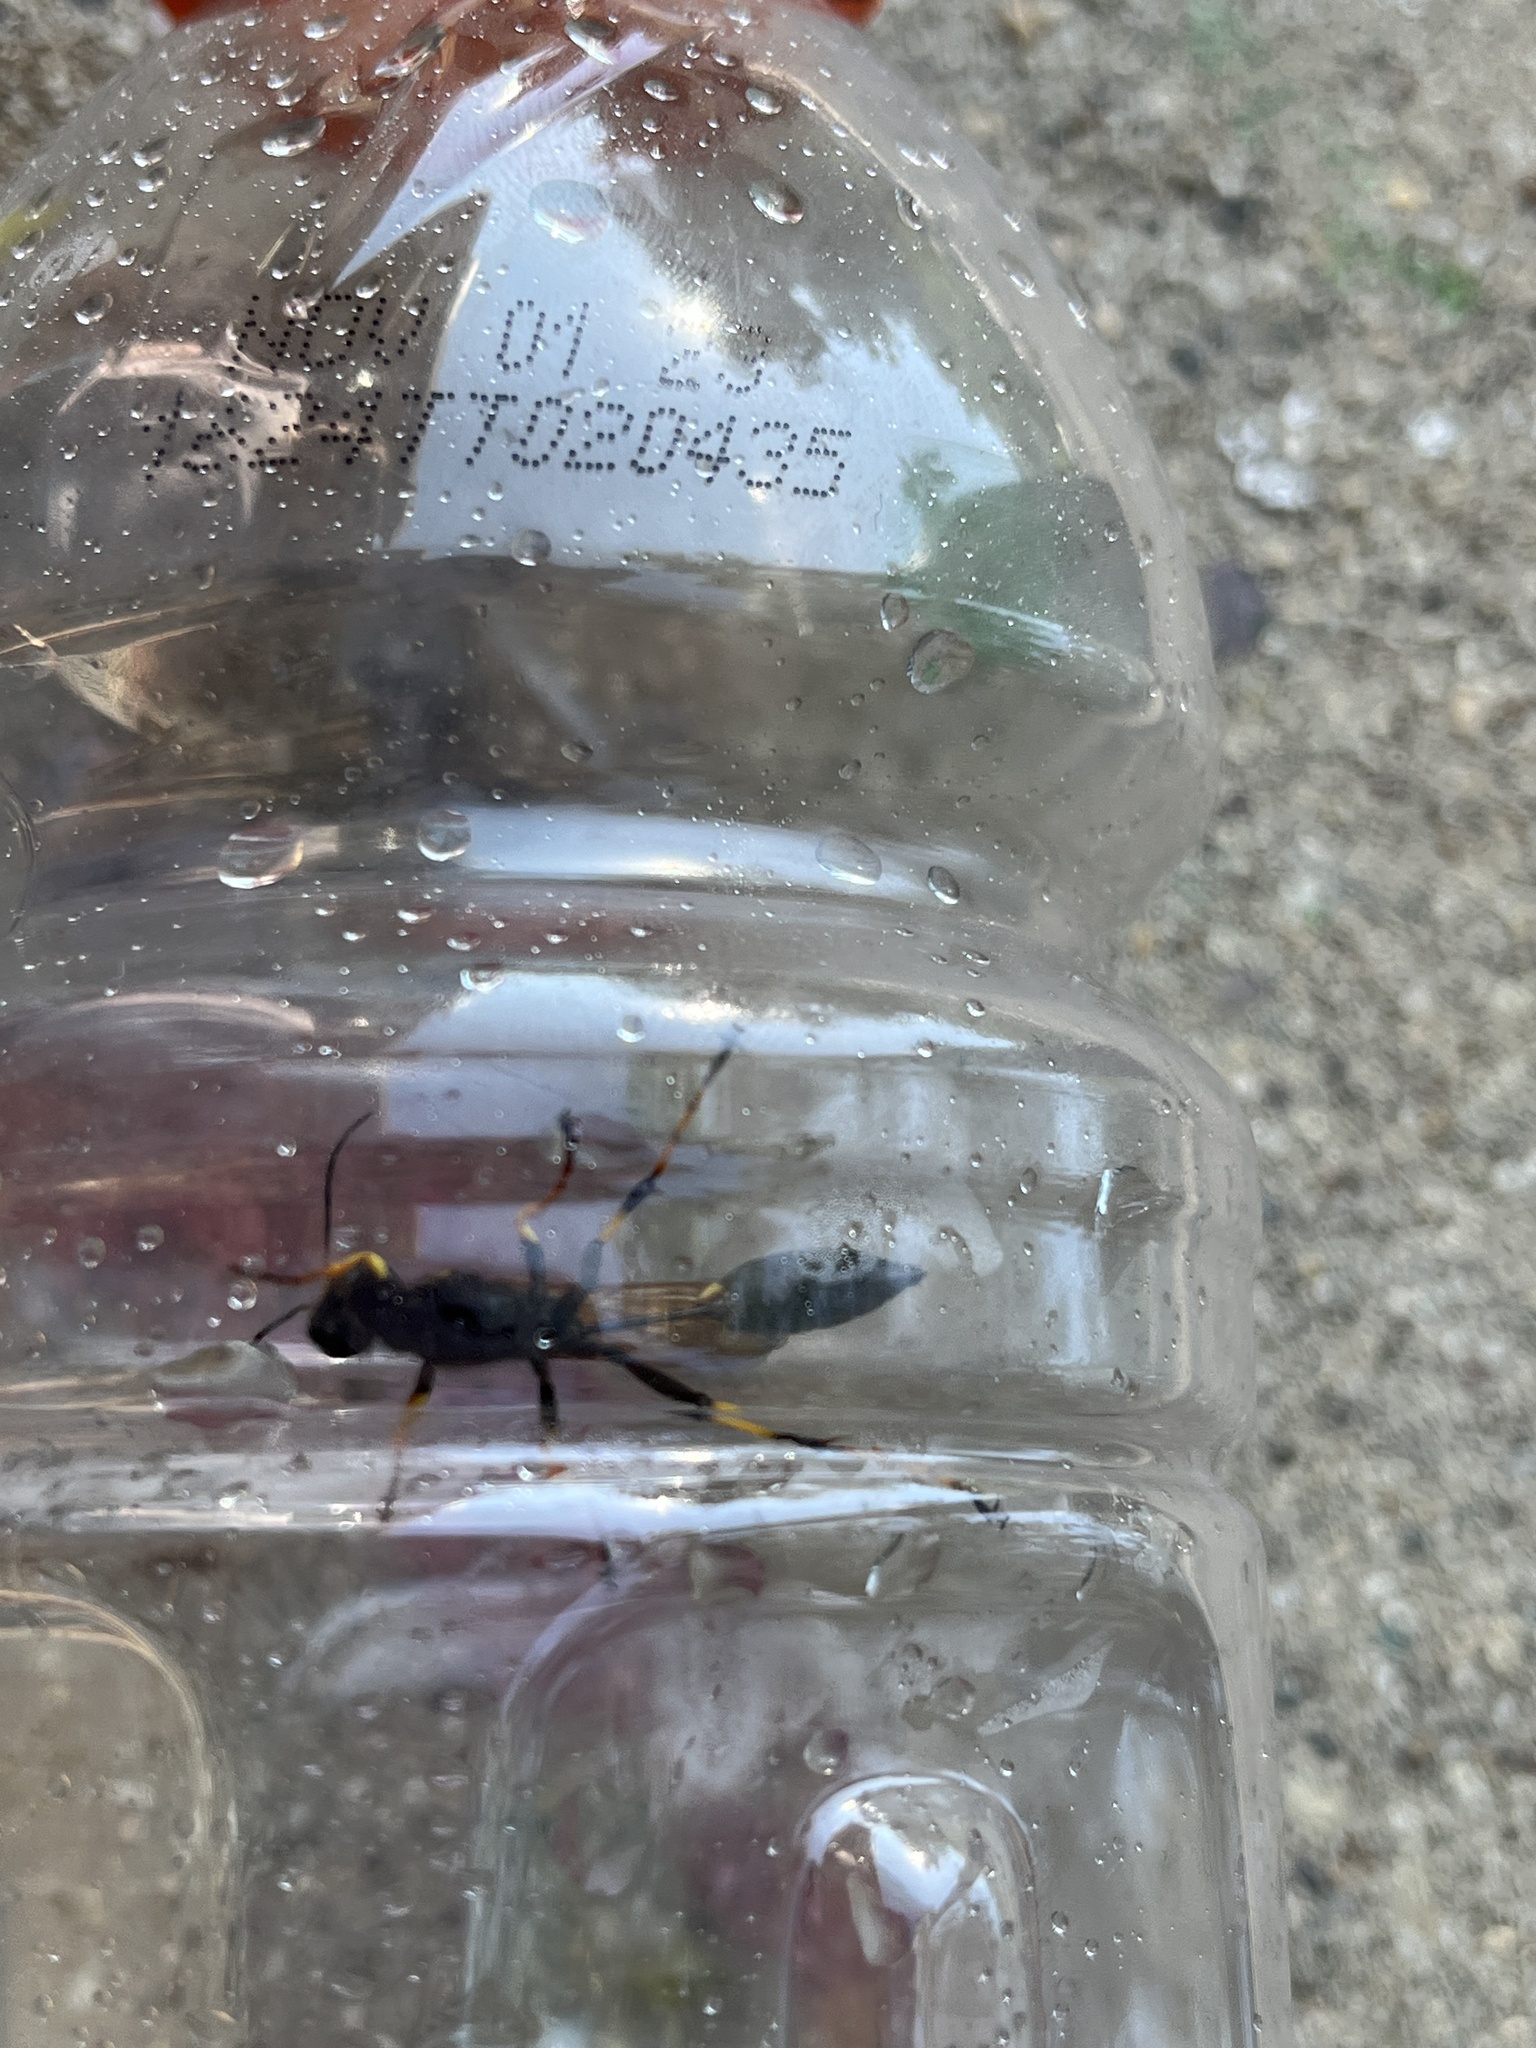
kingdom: Animalia
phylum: Arthropoda
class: Insecta
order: Hymenoptera
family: Sphecidae
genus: Sceliphron
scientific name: Sceliphron caementarium
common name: Mud dauber
